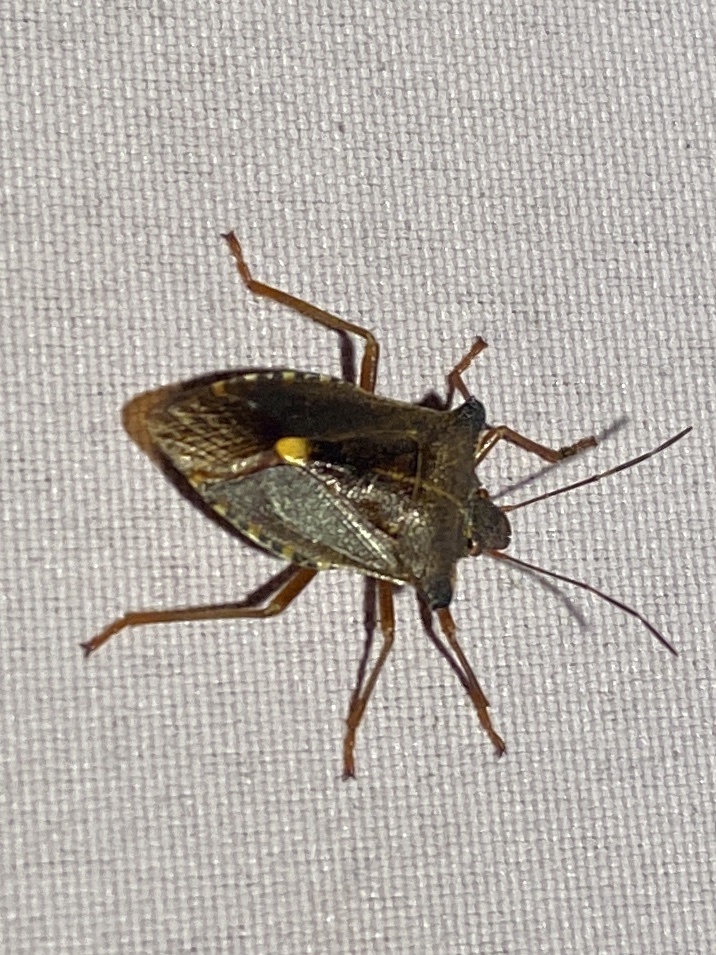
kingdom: Animalia
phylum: Arthropoda
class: Insecta
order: Hemiptera
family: Pentatomidae
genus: Pentatoma
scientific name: Pentatoma rufipes
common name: Forest bug
